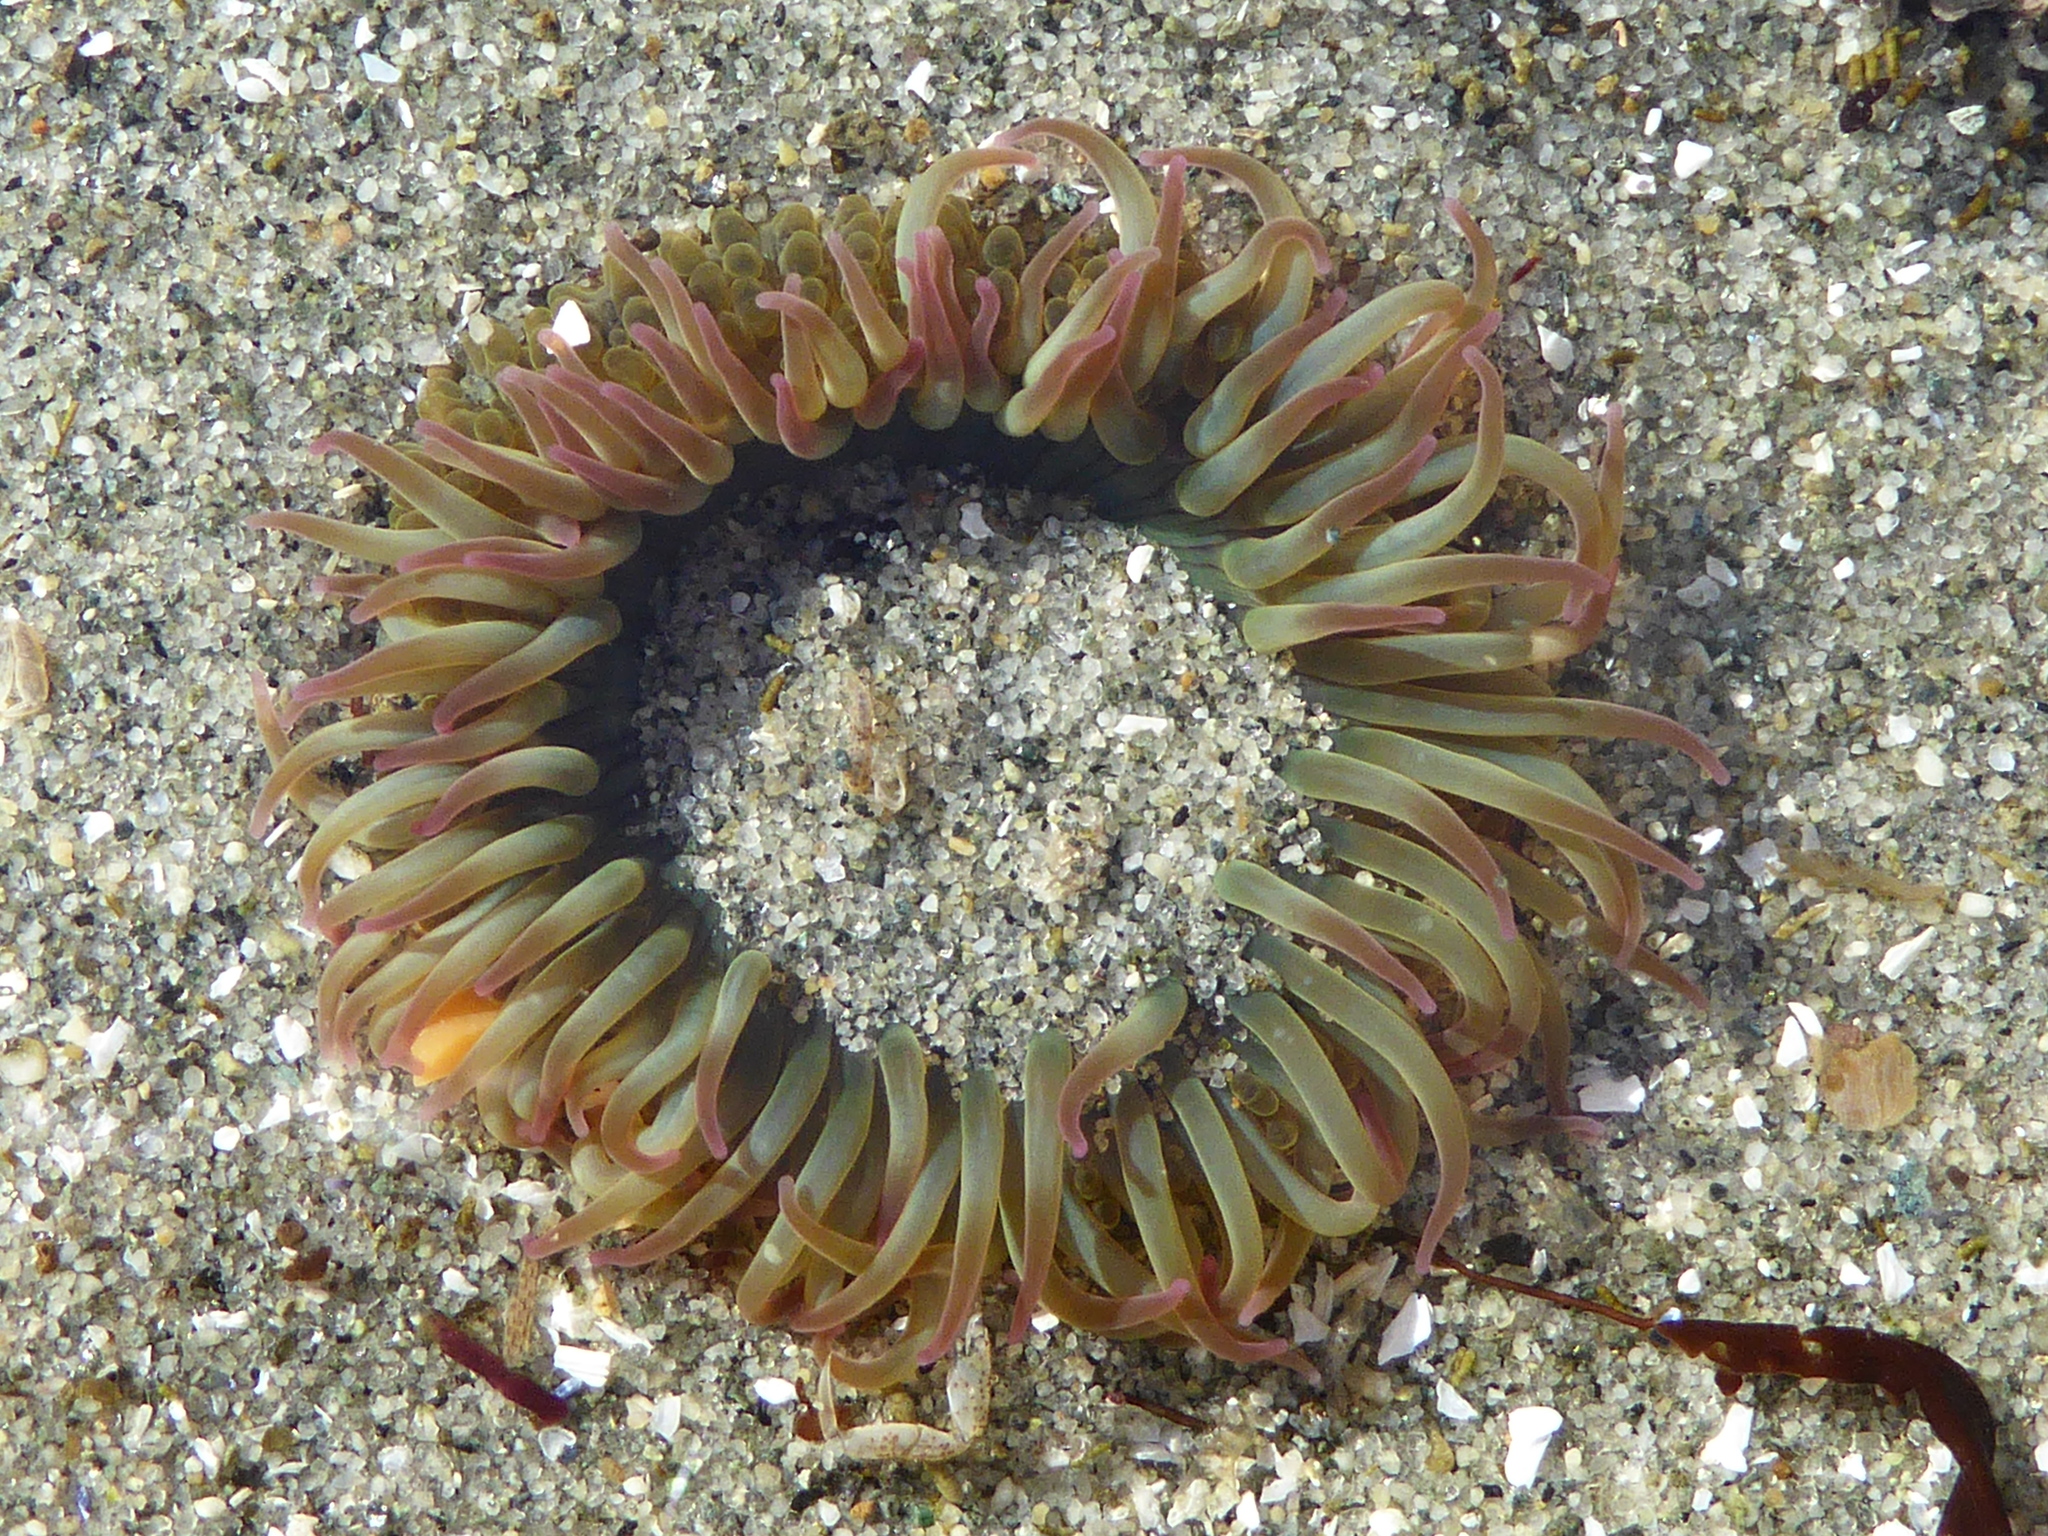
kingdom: Animalia
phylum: Cnidaria
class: Anthozoa
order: Actiniaria
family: Actiniidae
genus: Anthopleura
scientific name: Anthopleura elegantissima
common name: Clonal anemone
